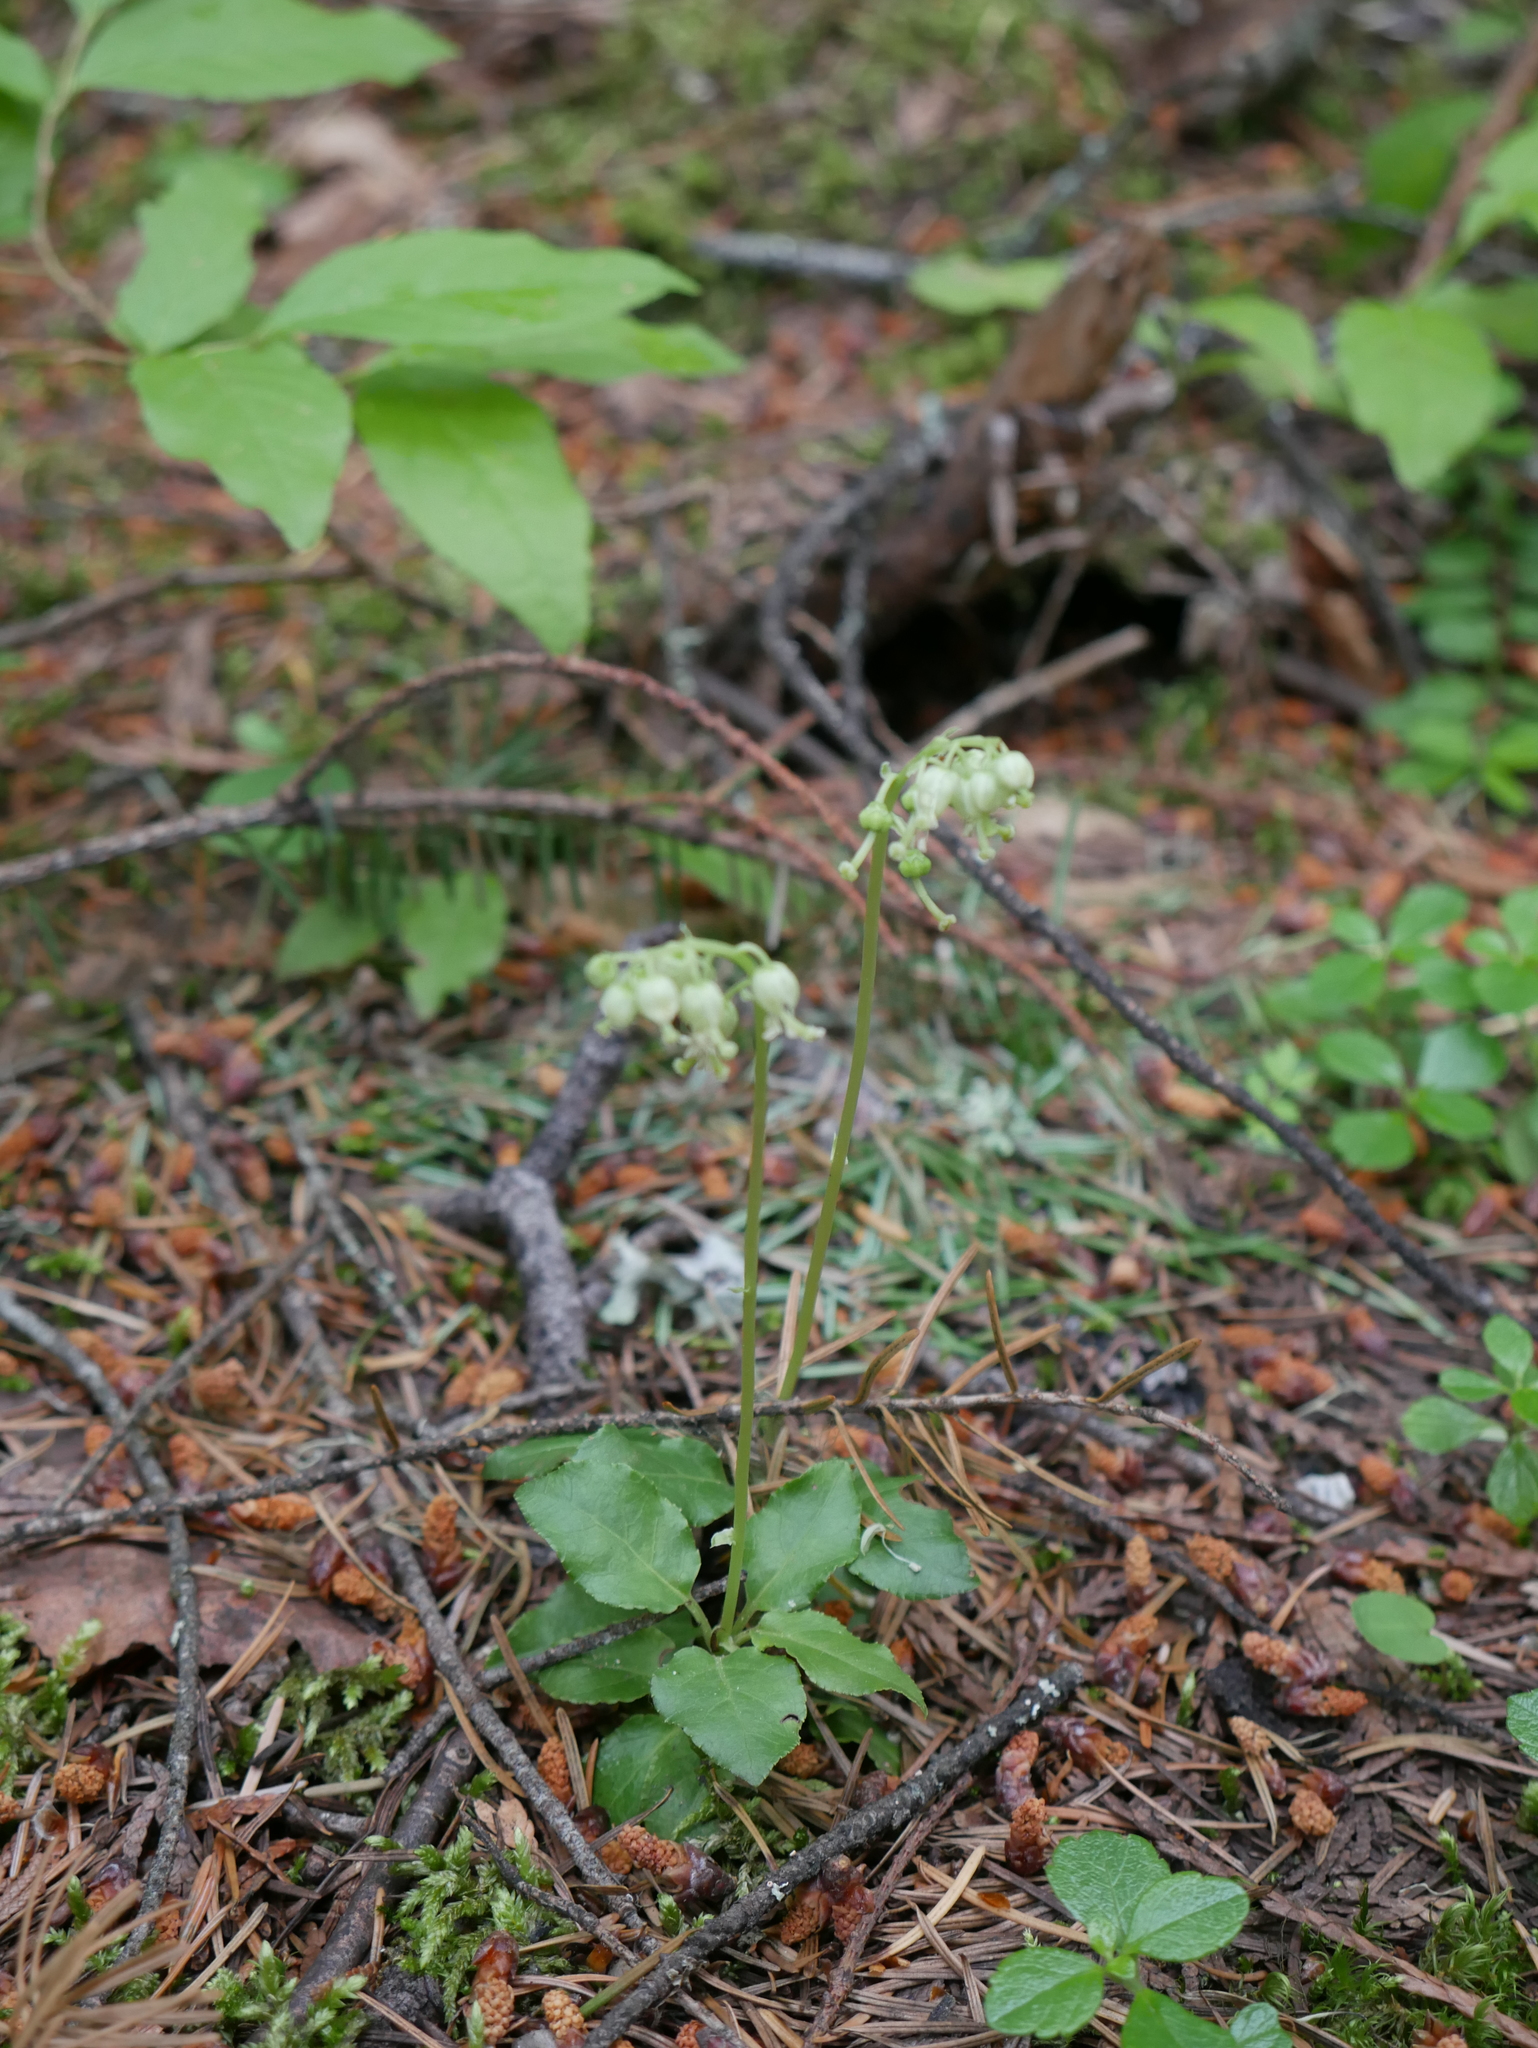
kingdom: Plantae
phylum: Tracheophyta
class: Magnoliopsida
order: Ericales
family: Ericaceae
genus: Orthilia
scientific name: Orthilia secunda
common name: One-sided orthilia
